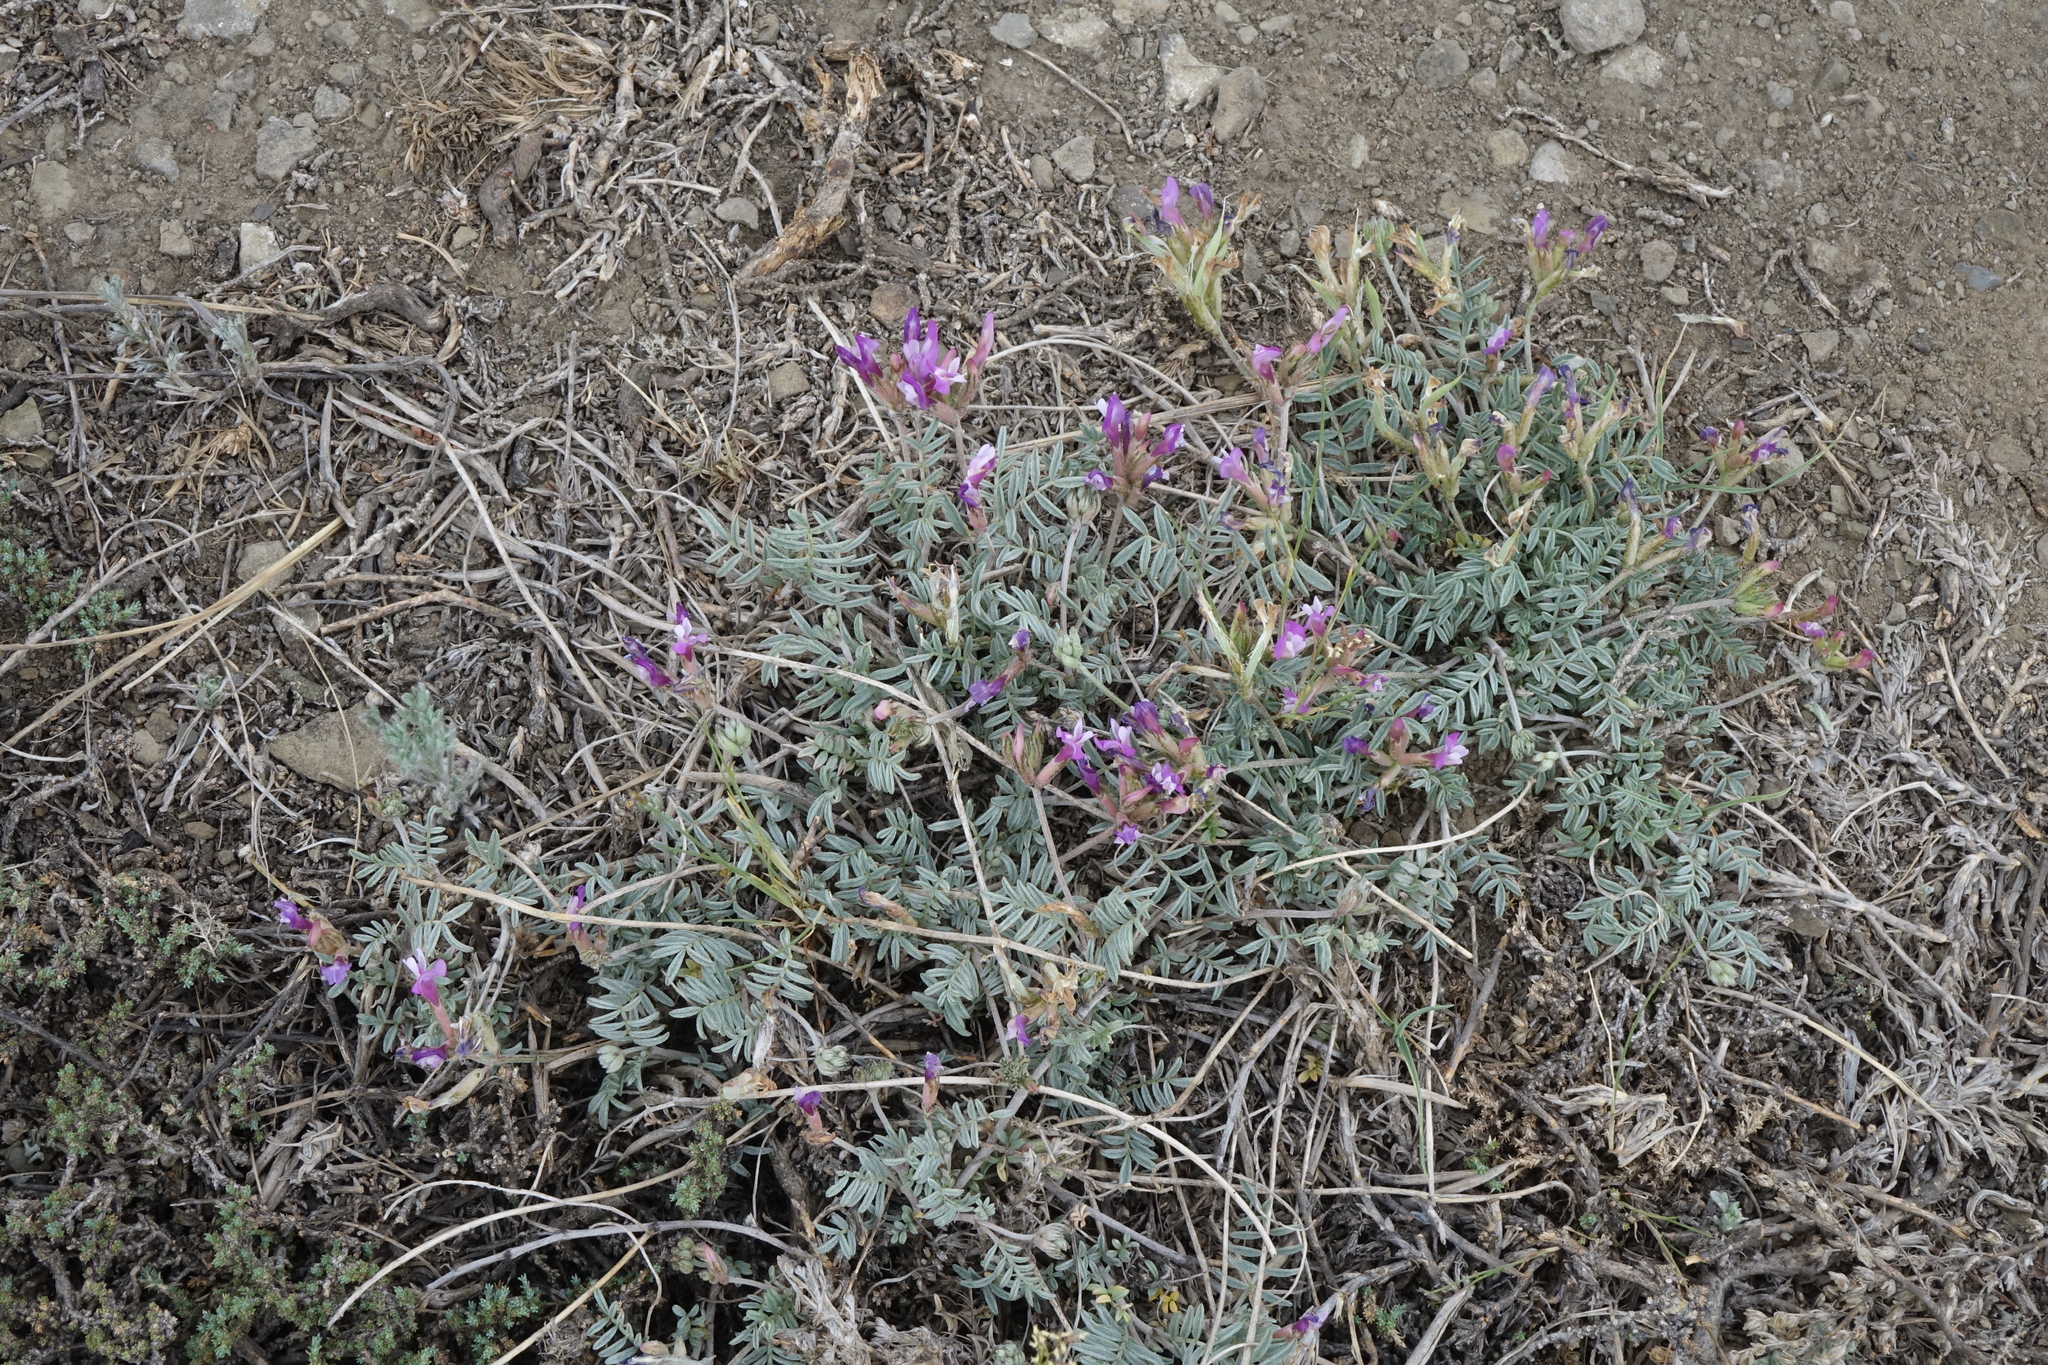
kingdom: Plantae
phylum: Tracheophyta
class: Magnoliopsida
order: Fabales
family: Fabaceae
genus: Astragalus
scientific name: Astragalus stenoceras
